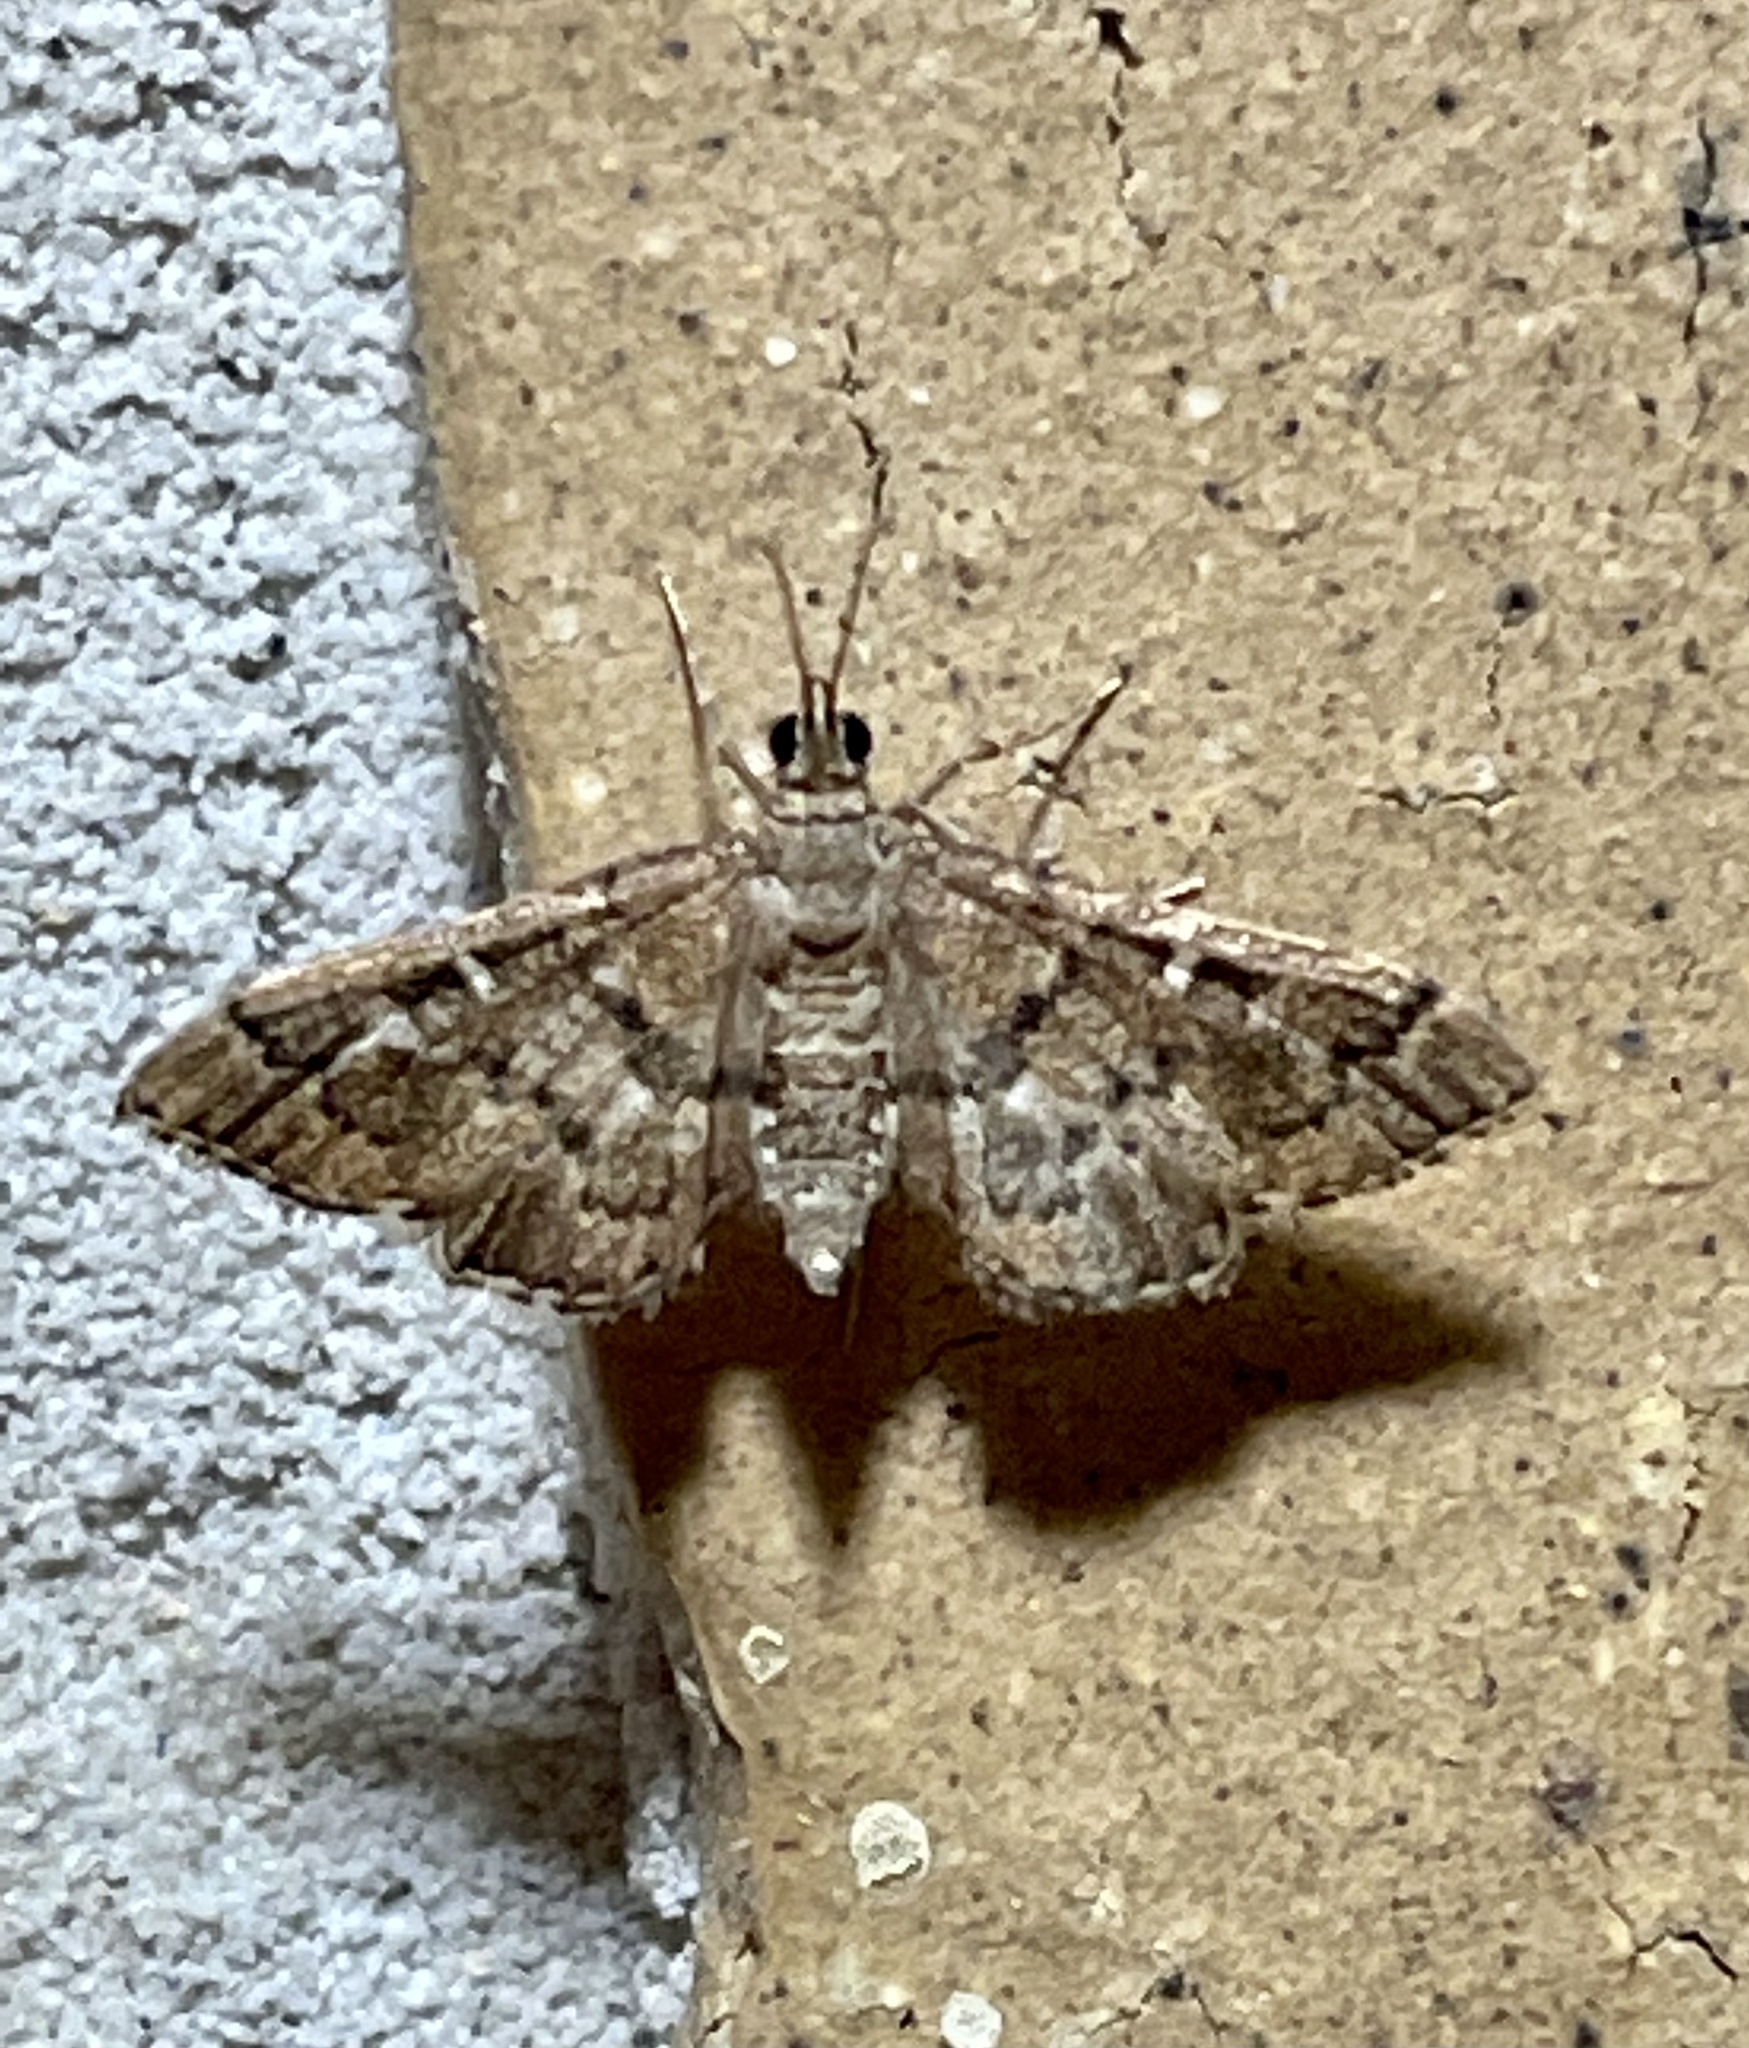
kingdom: Animalia
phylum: Arthropoda
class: Insecta
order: Lepidoptera
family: Crambidae
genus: Nacoleia
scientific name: Nacoleia rhoeoalis
